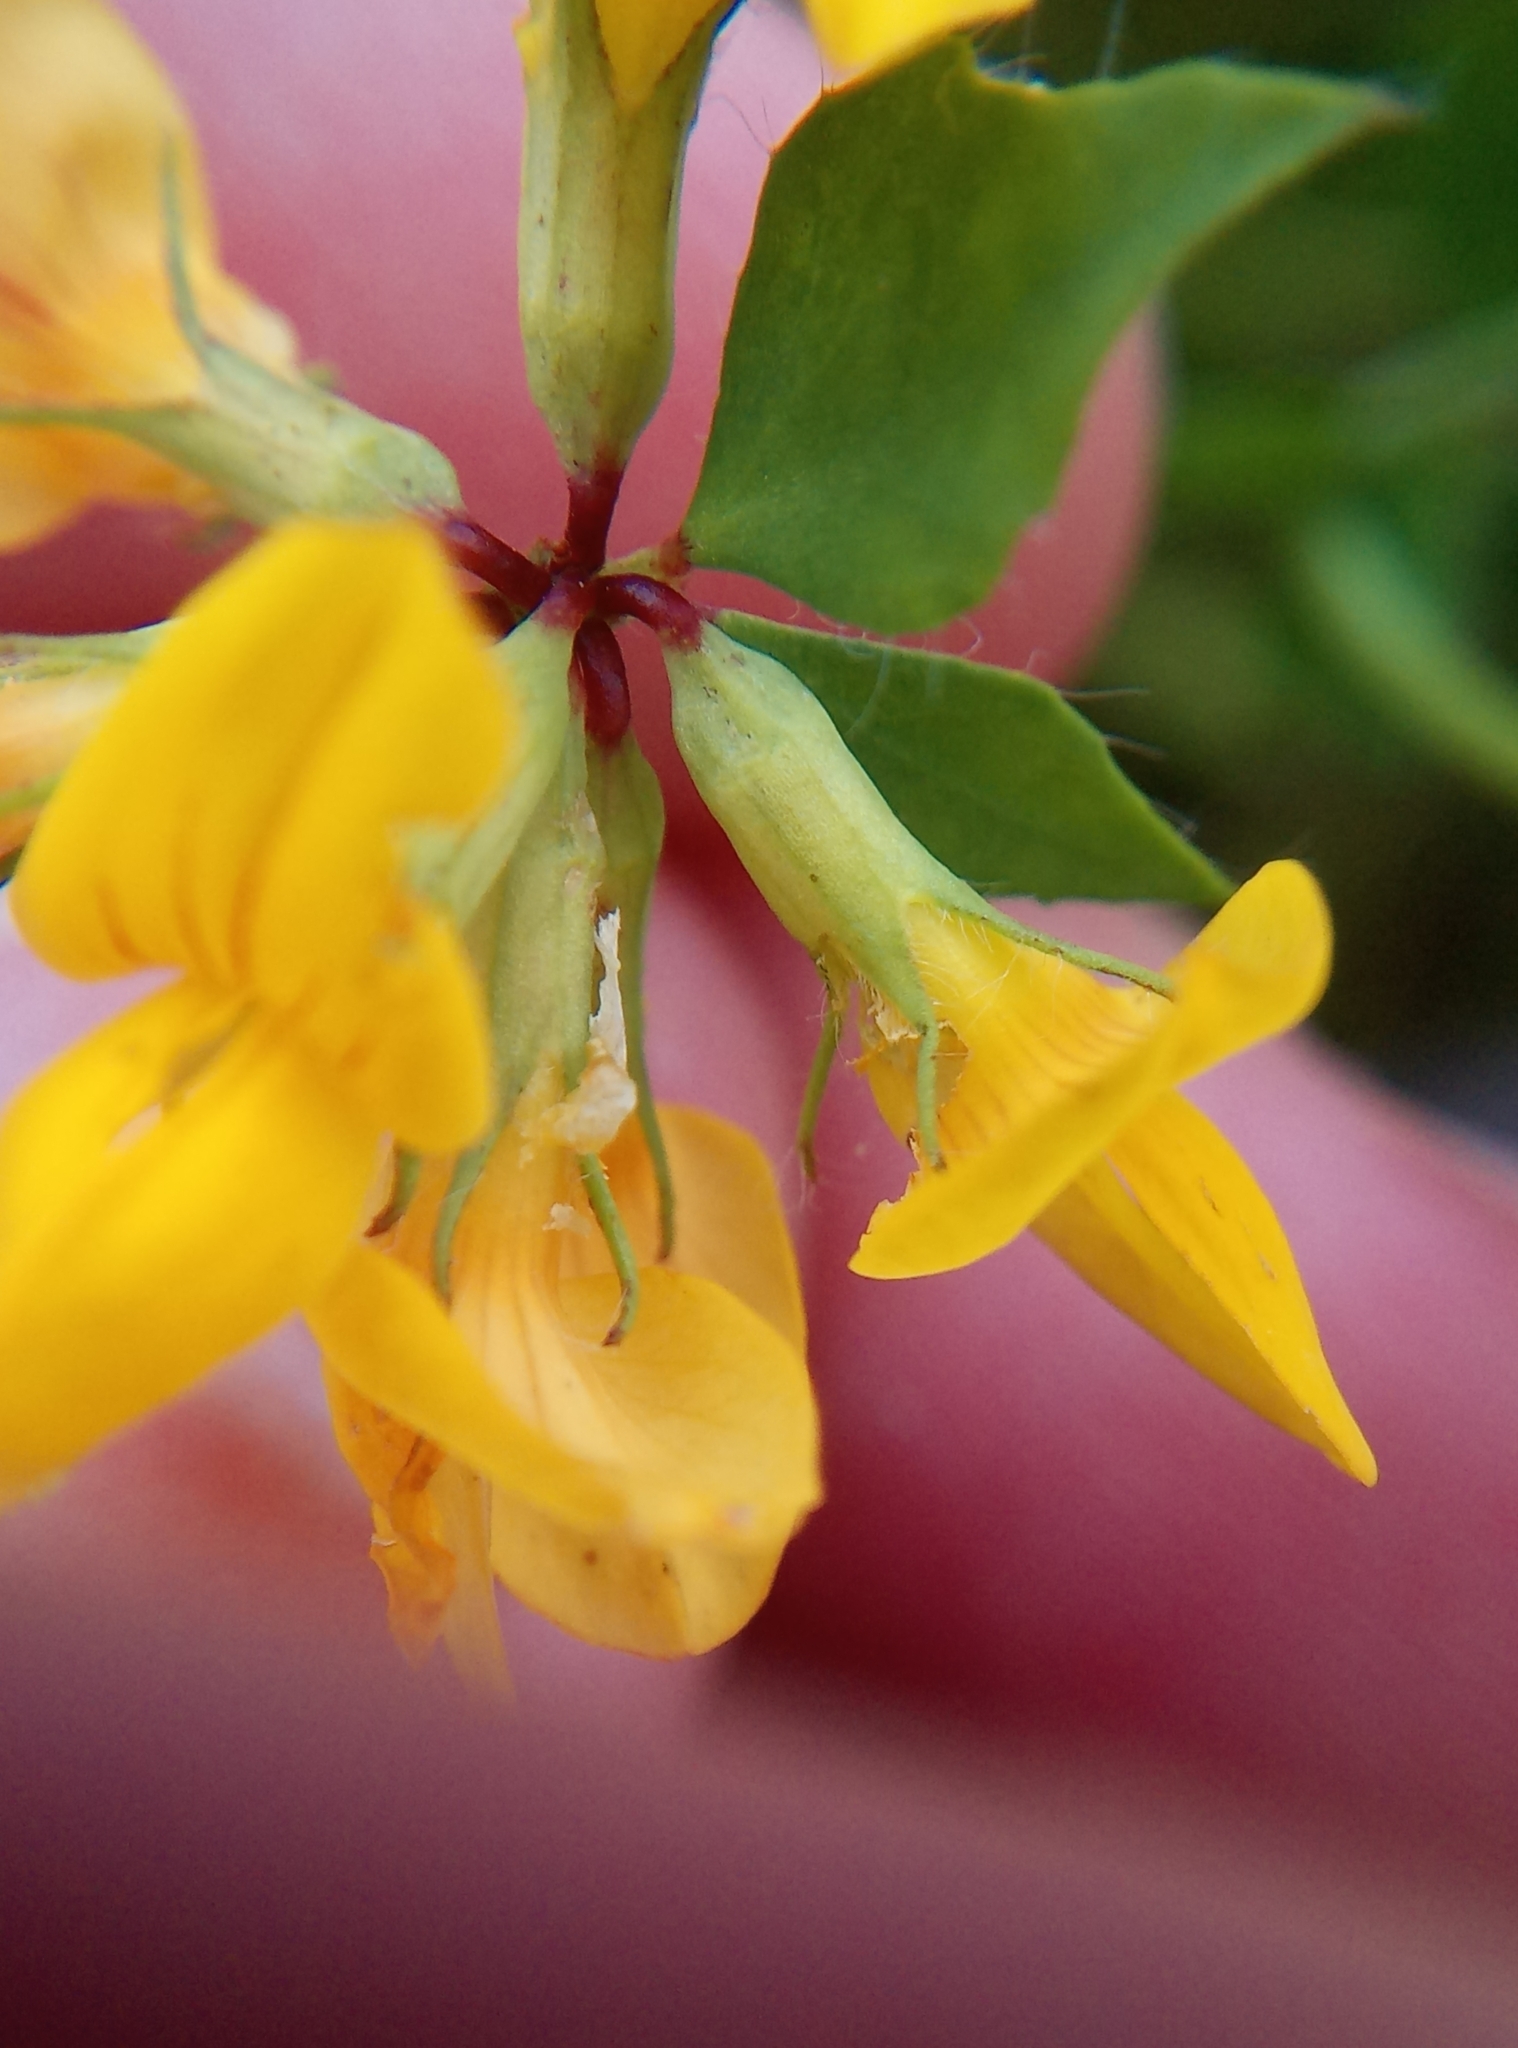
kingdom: Plantae
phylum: Tracheophyta
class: Magnoliopsida
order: Fabales
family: Fabaceae
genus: Lotus
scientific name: Lotus pedunculatus
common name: Greater birdsfoot-trefoil
